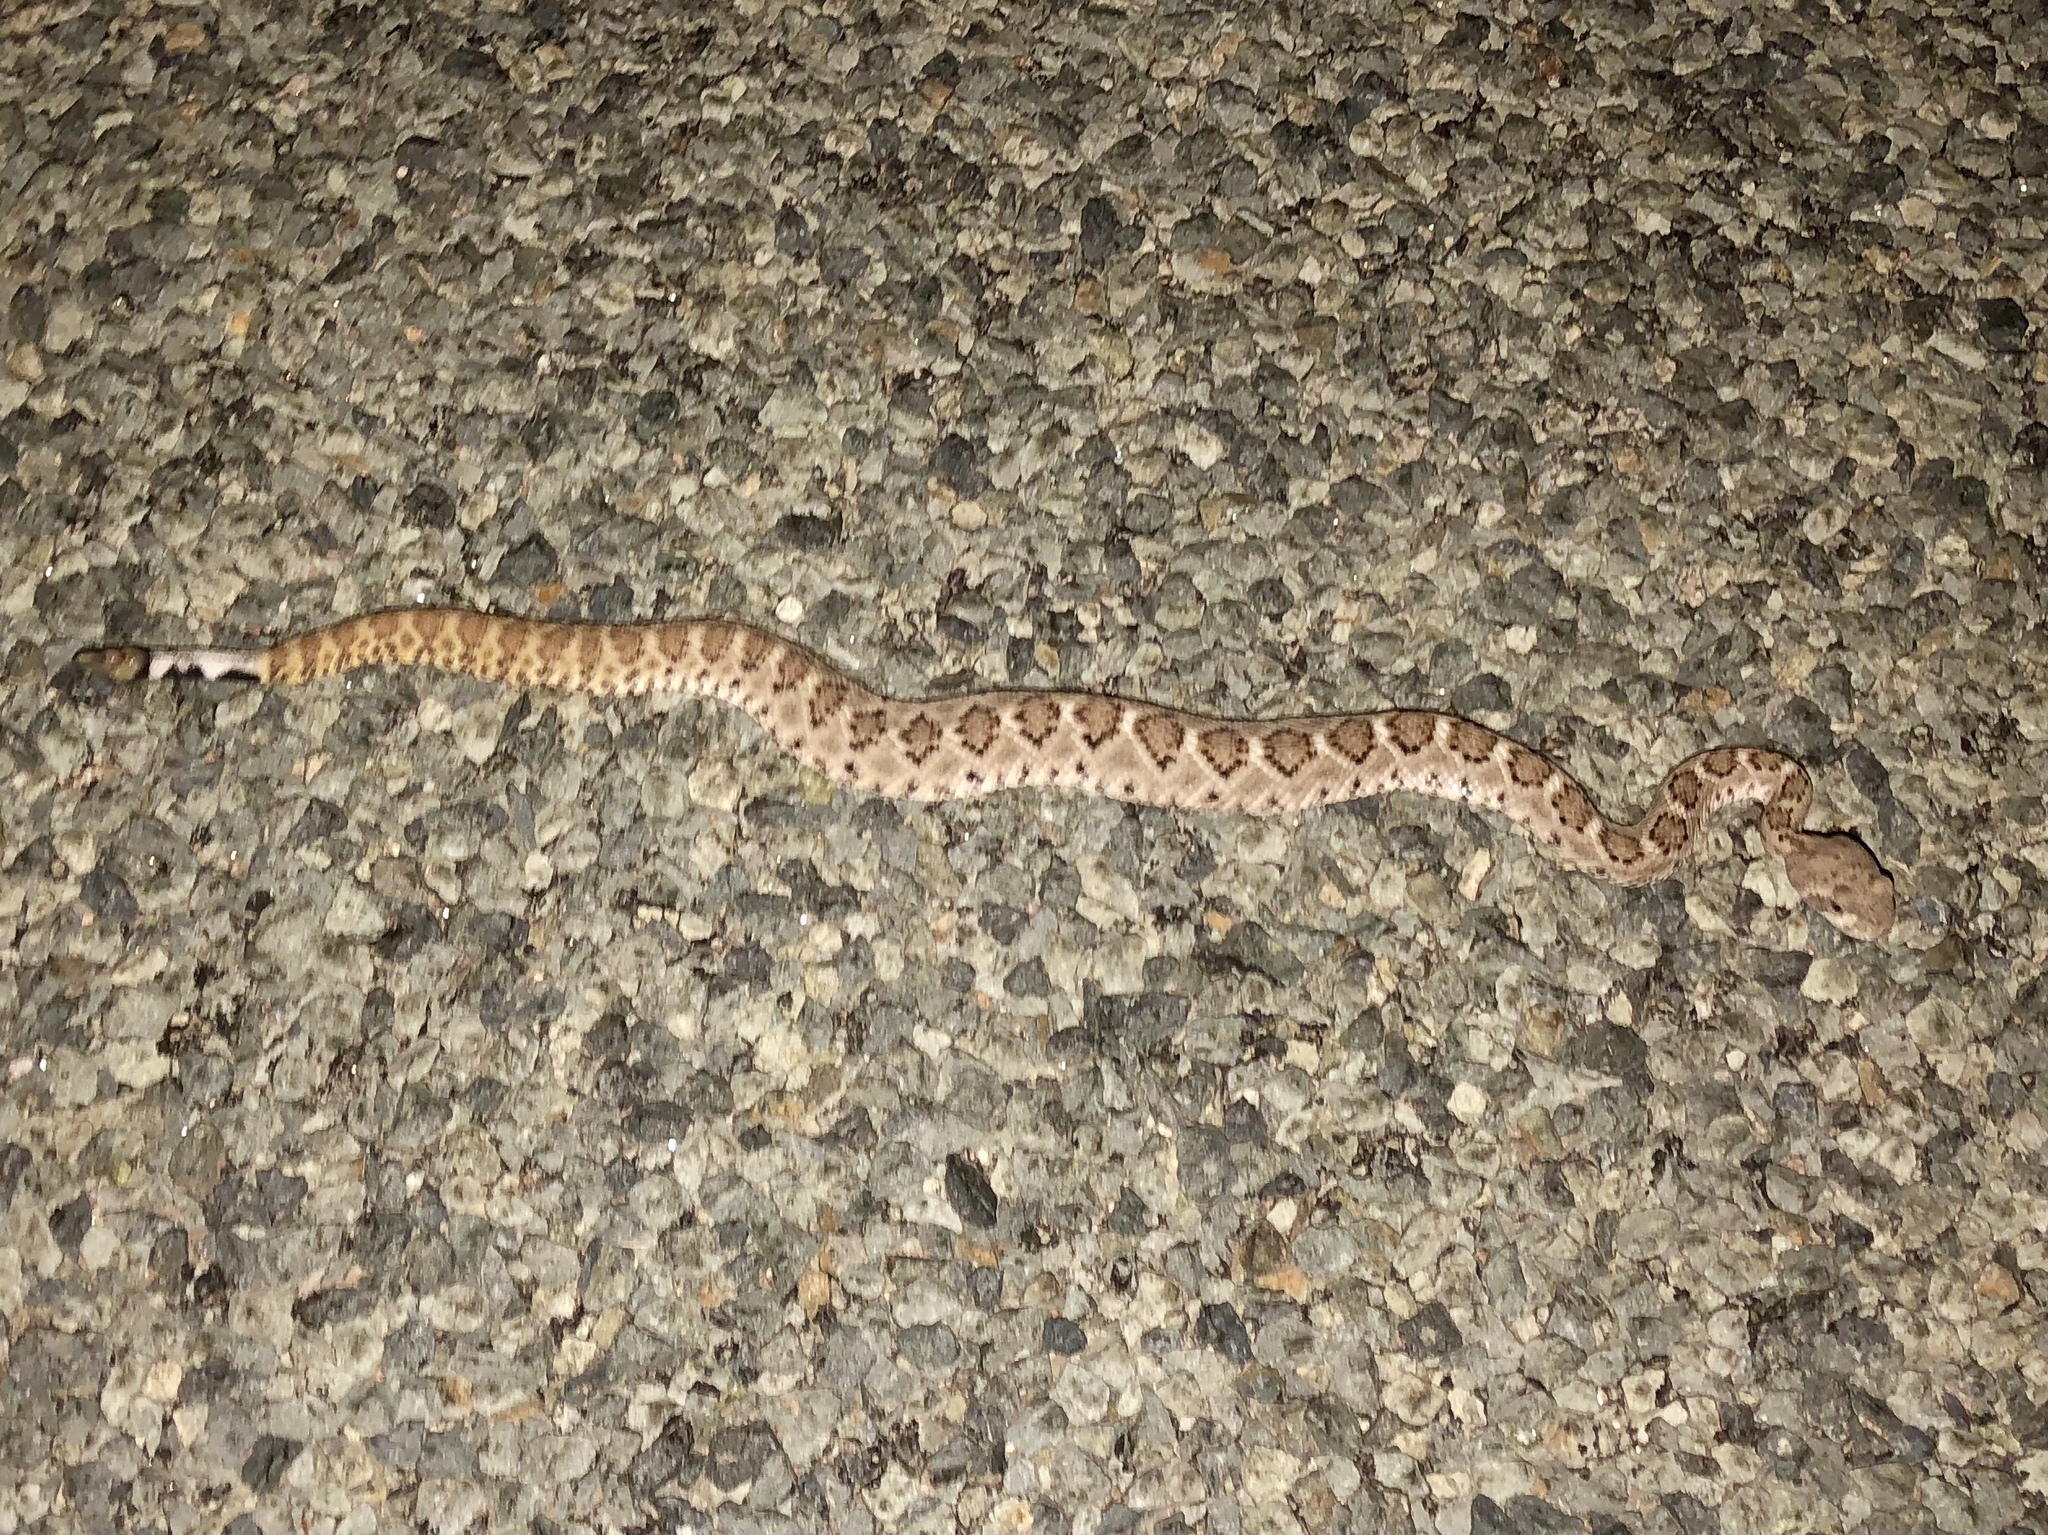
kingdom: Animalia
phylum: Chordata
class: Squamata
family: Viperidae
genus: Crotalus
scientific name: Crotalus atrox
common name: Western diamond-backed rattlesnake
